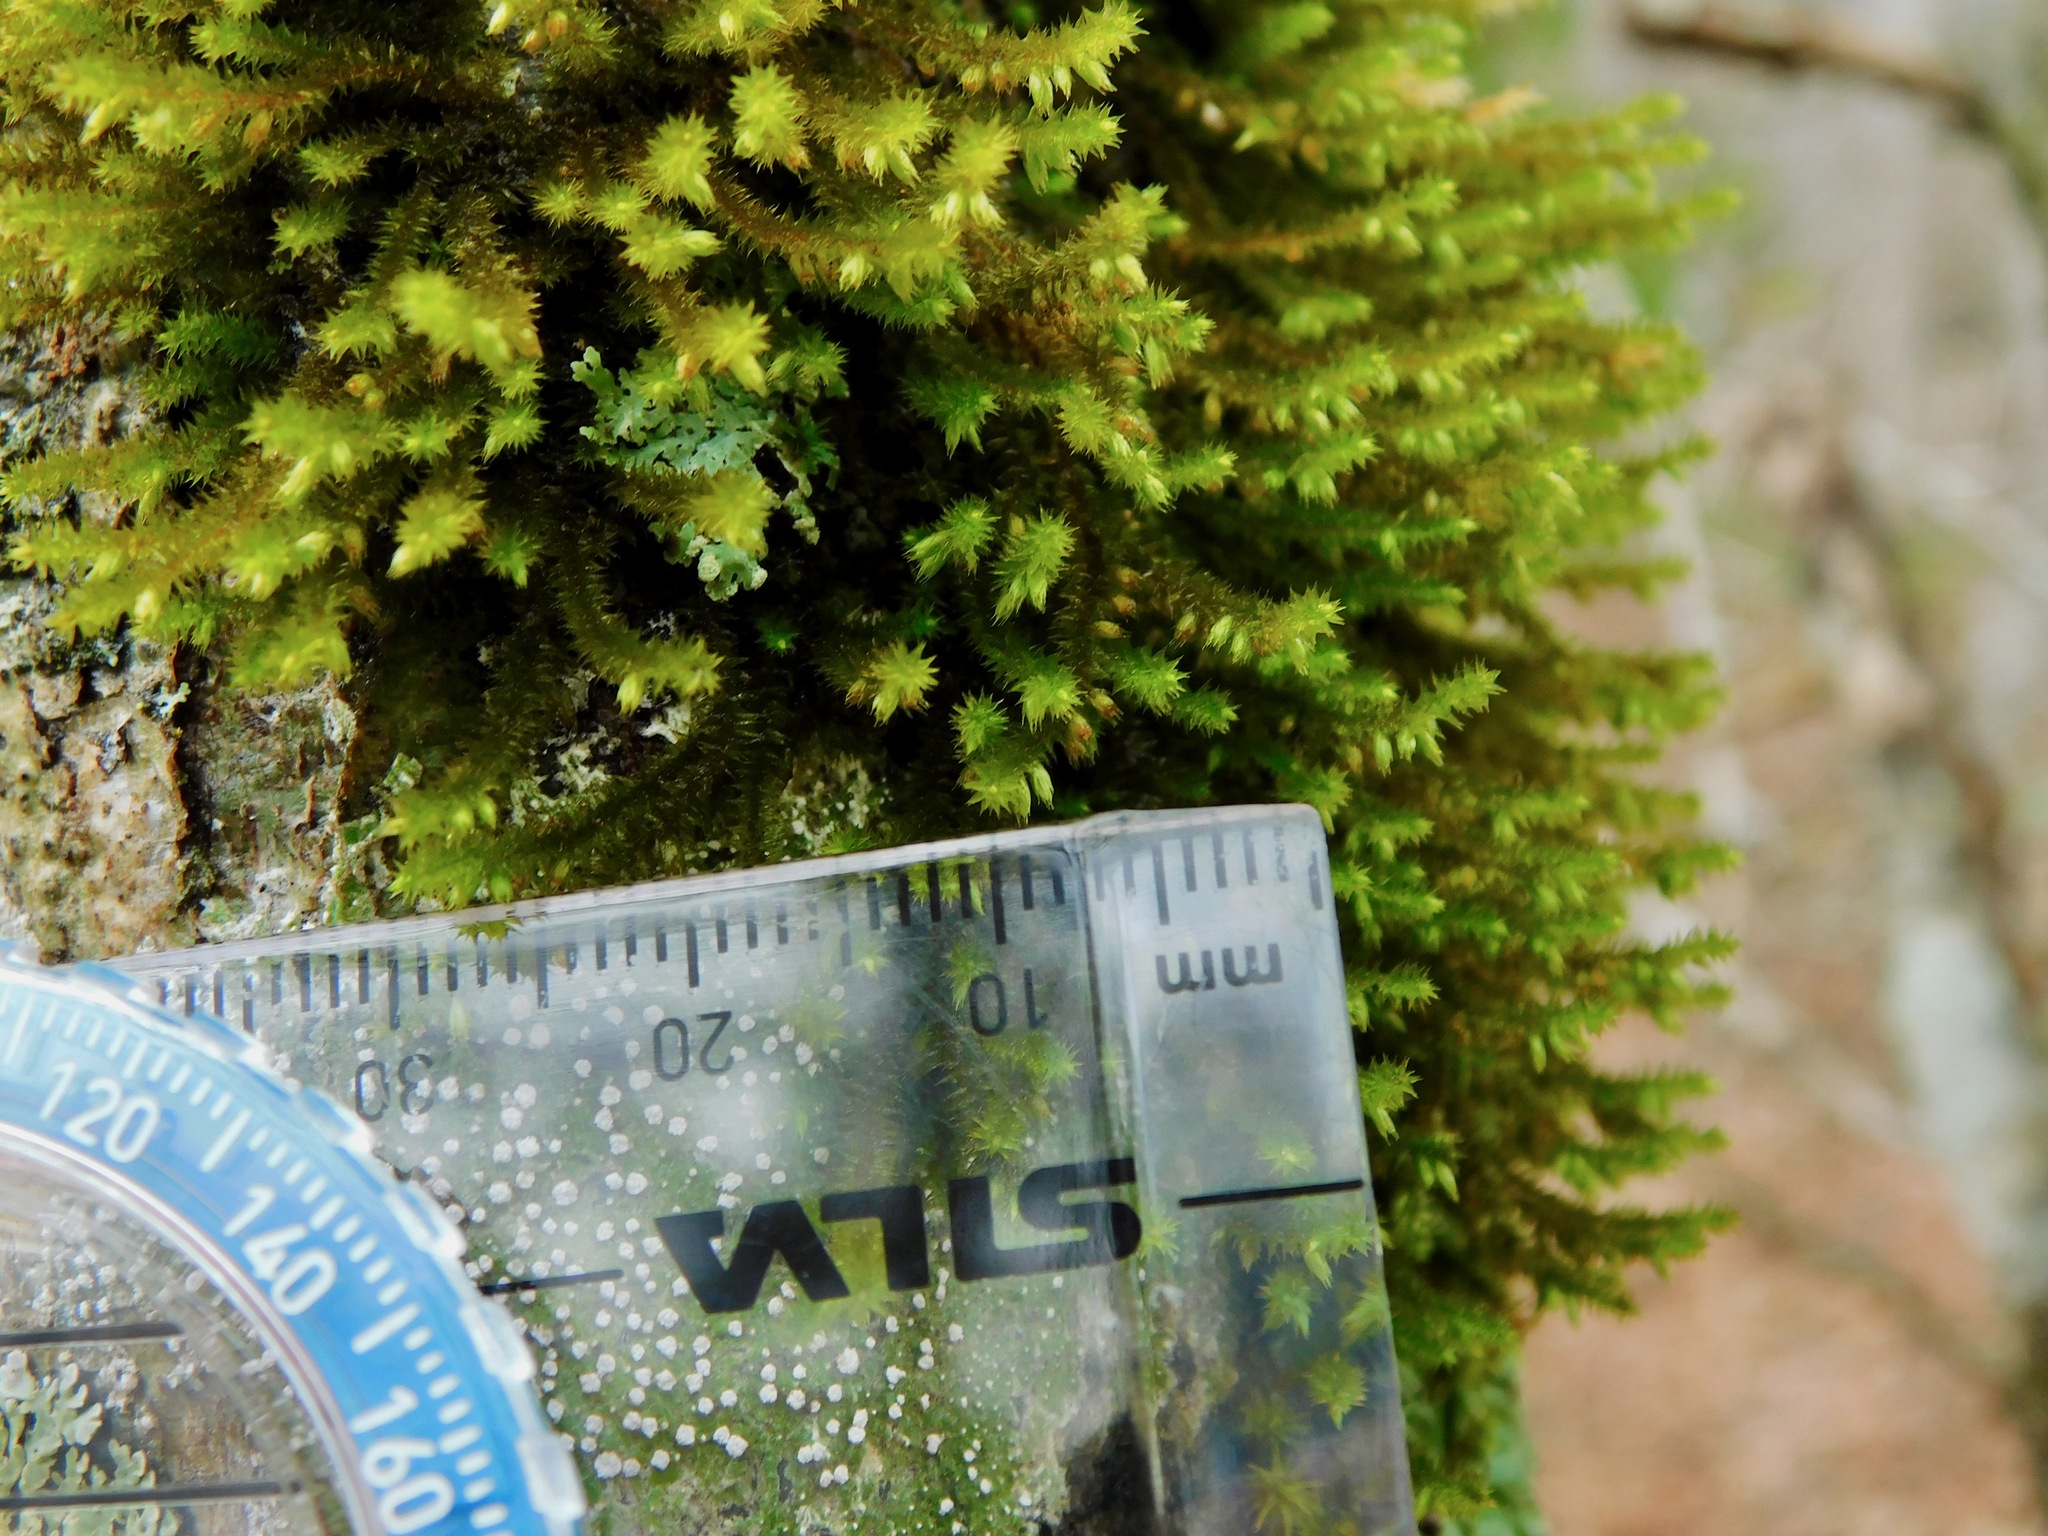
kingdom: Plantae
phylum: Bryophyta
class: Bryopsida
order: Hypnales
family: Leucodontaceae
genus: Leucodon
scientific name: Leucodon sciuroides
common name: Squirrel-tail moss
